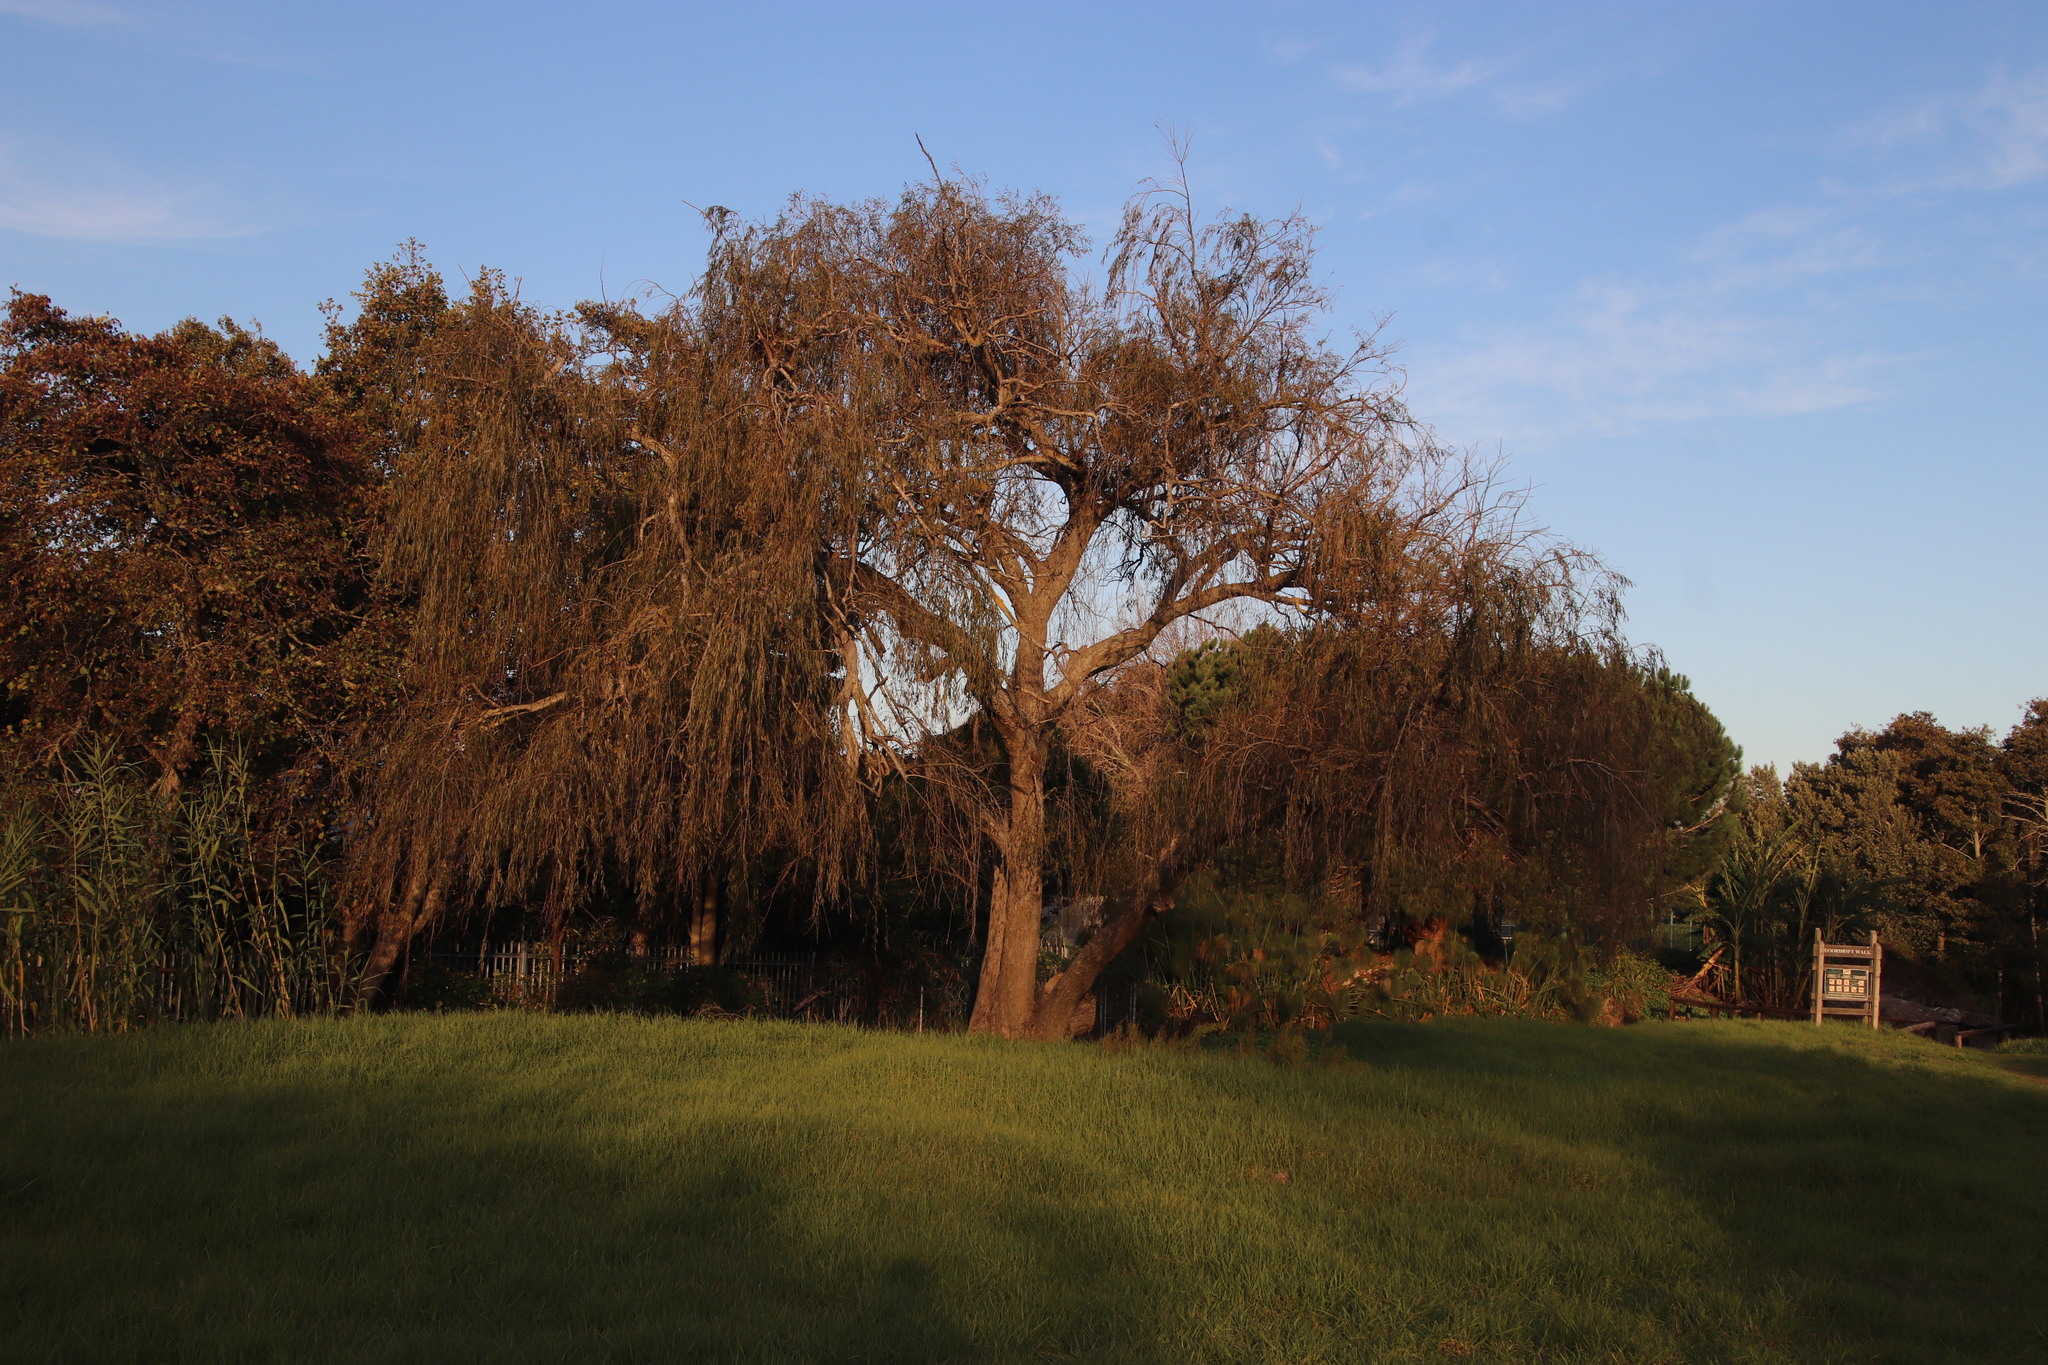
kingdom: Plantae
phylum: Tracheophyta
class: Magnoliopsida
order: Malpighiales
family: Salicaceae
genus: Salix
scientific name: Salix babylonica
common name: Weeping willow
